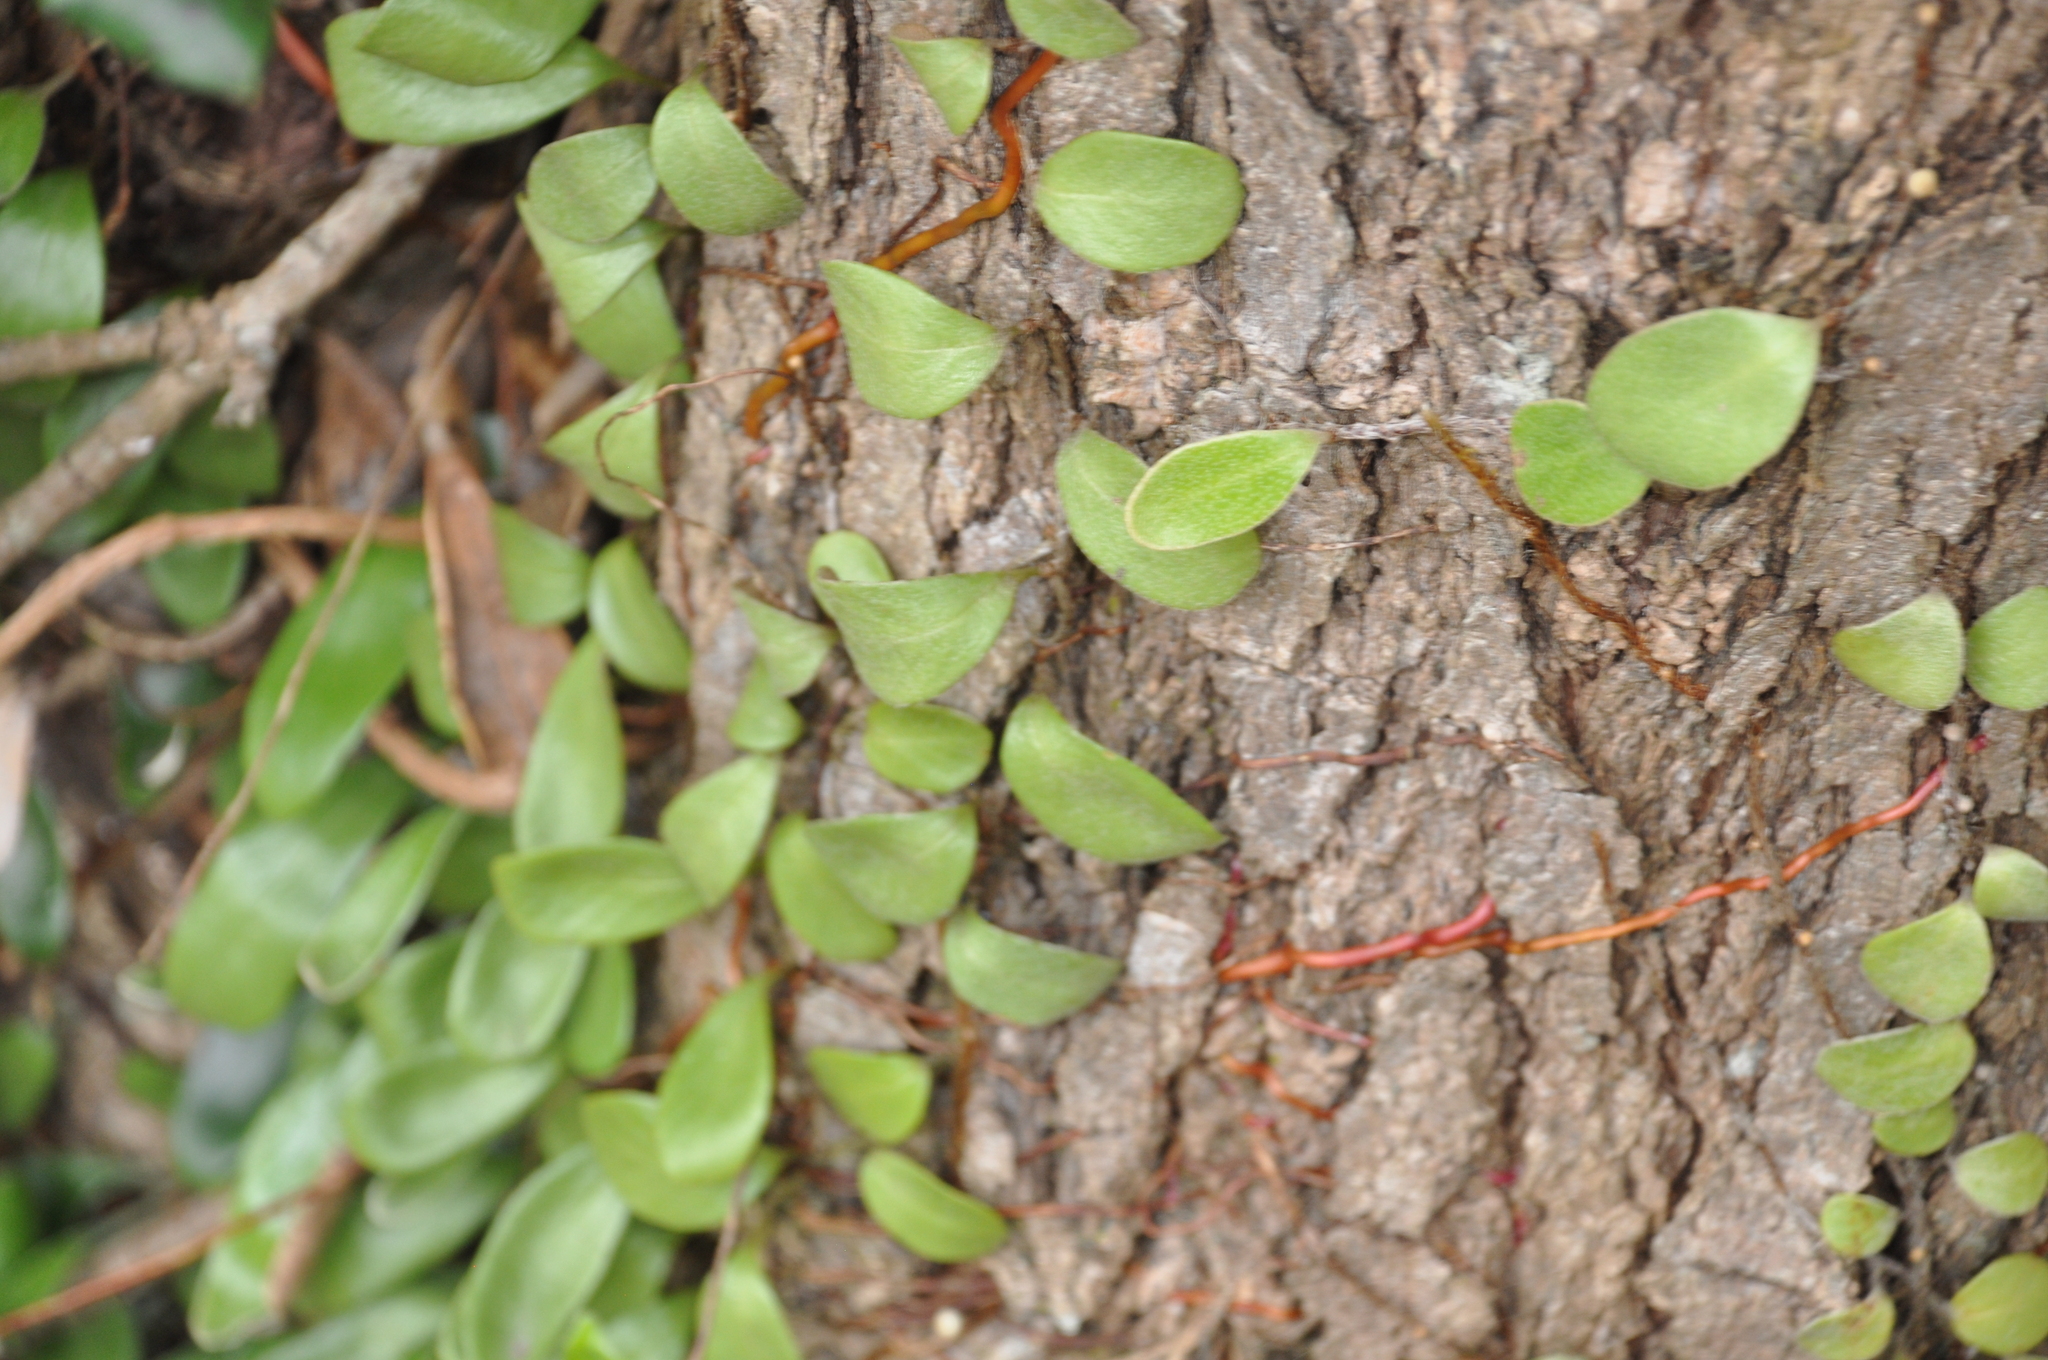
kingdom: Plantae
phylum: Tracheophyta
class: Polypodiopsida
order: Polypodiales
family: Polypodiaceae
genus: Pyrrosia
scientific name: Pyrrosia eleagnifolia
